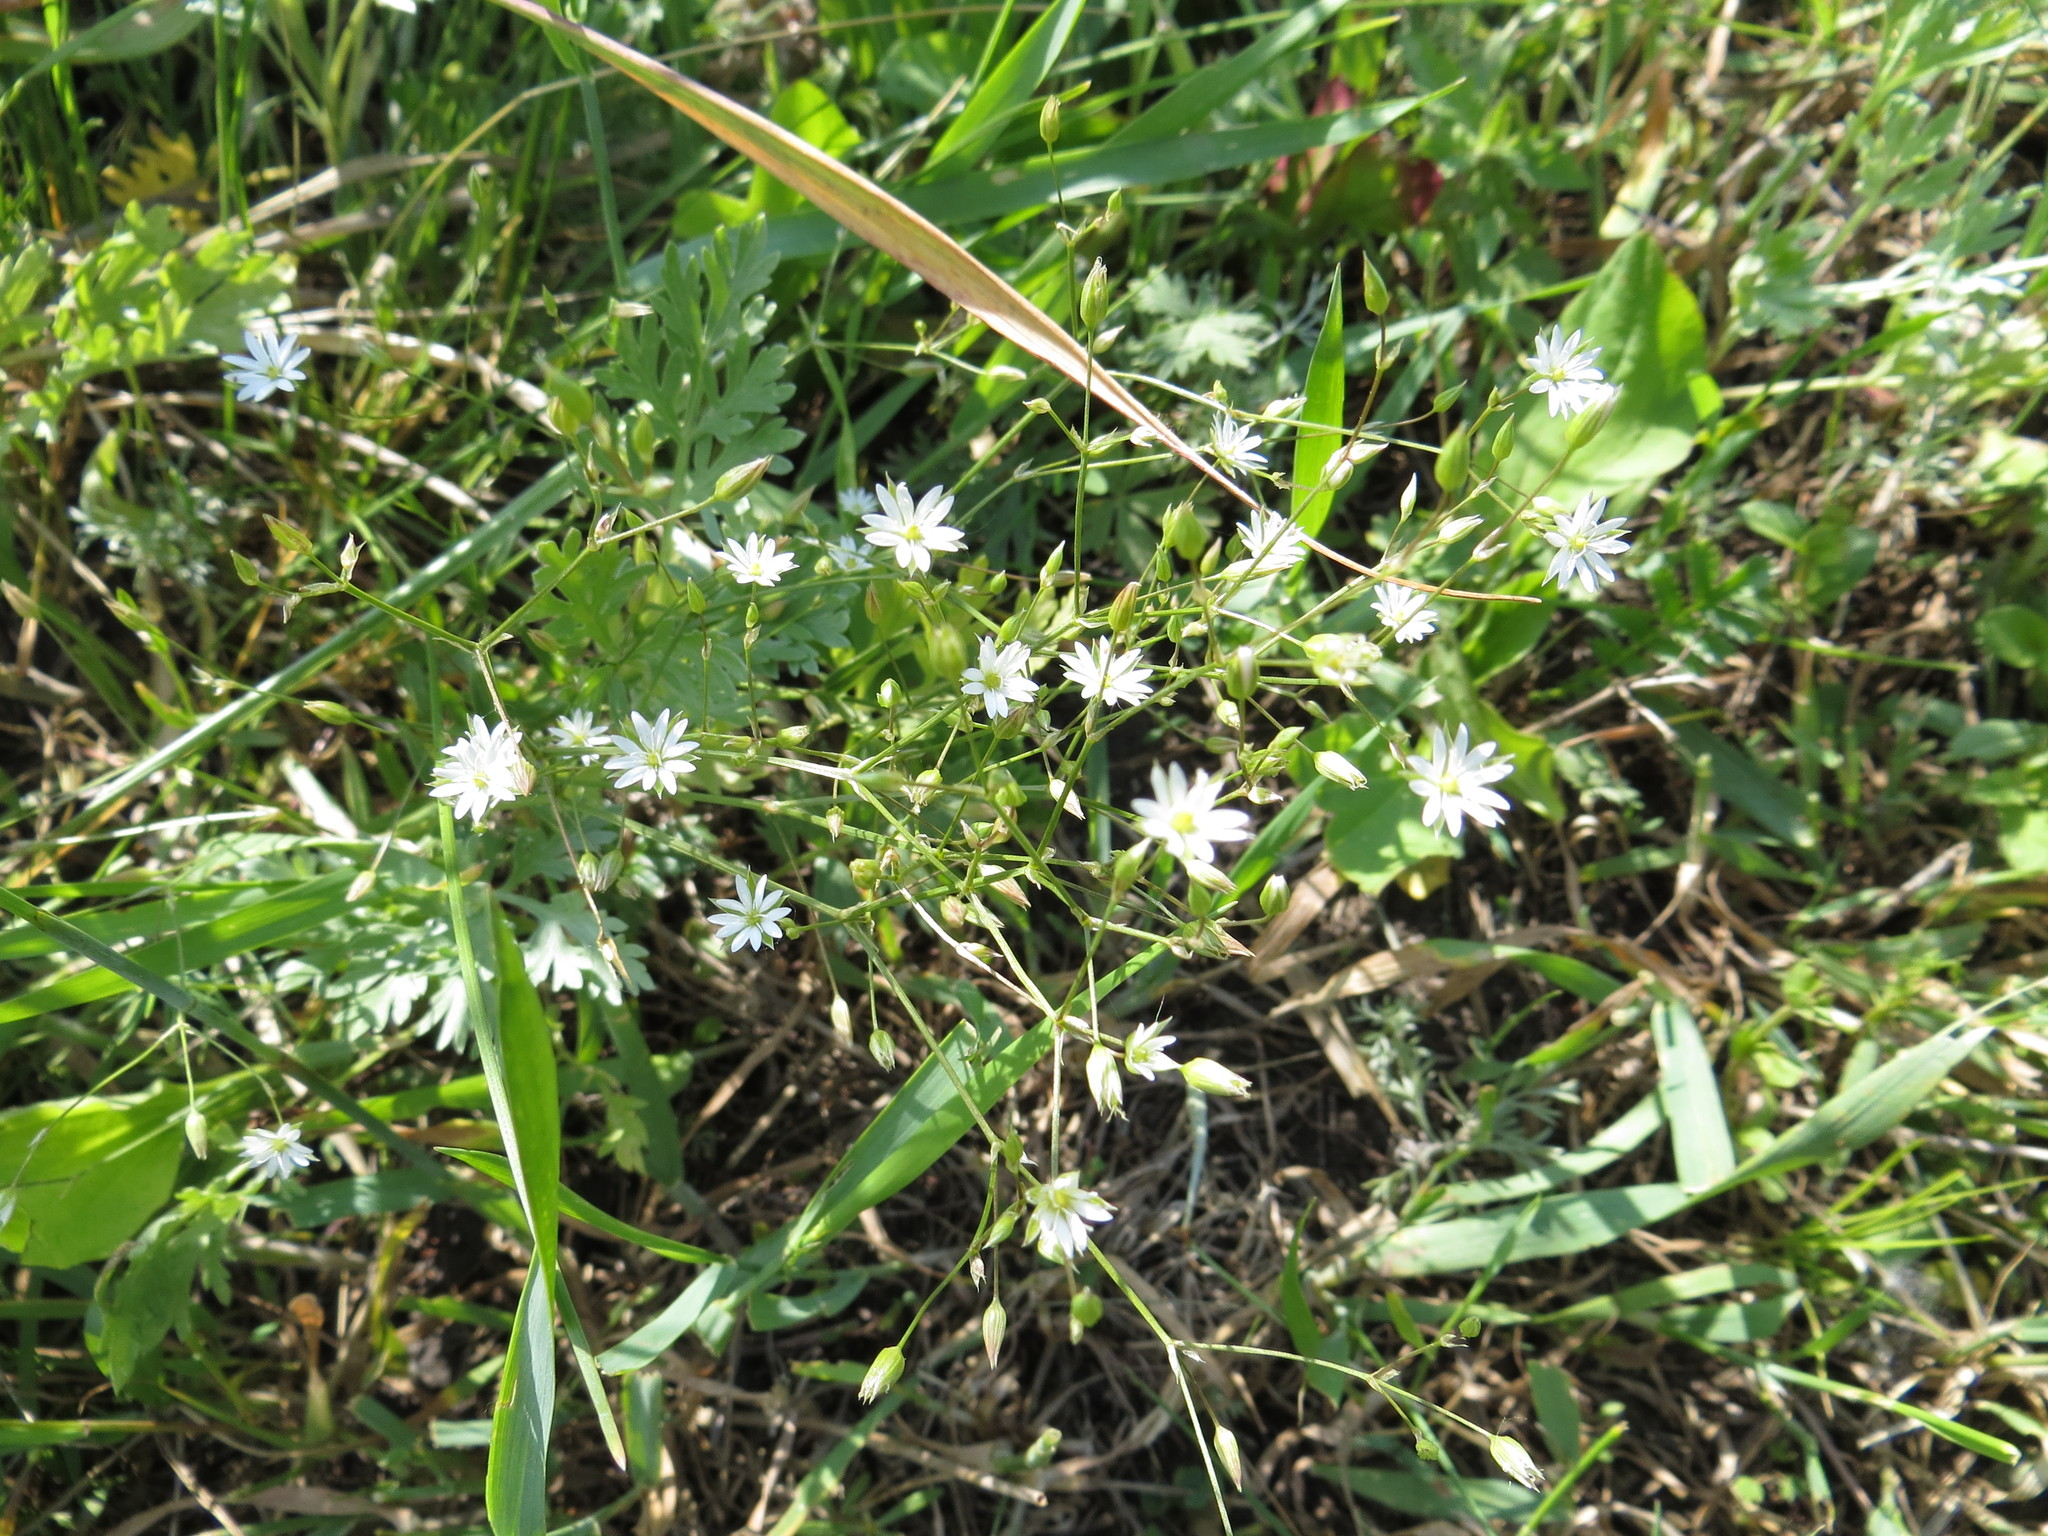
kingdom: Plantae
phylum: Tracheophyta
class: Magnoliopsida
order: Caryophyllales
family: Caryophyllaceae
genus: Stellaria
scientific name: Stellaria graminea
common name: Grass-like starwort
